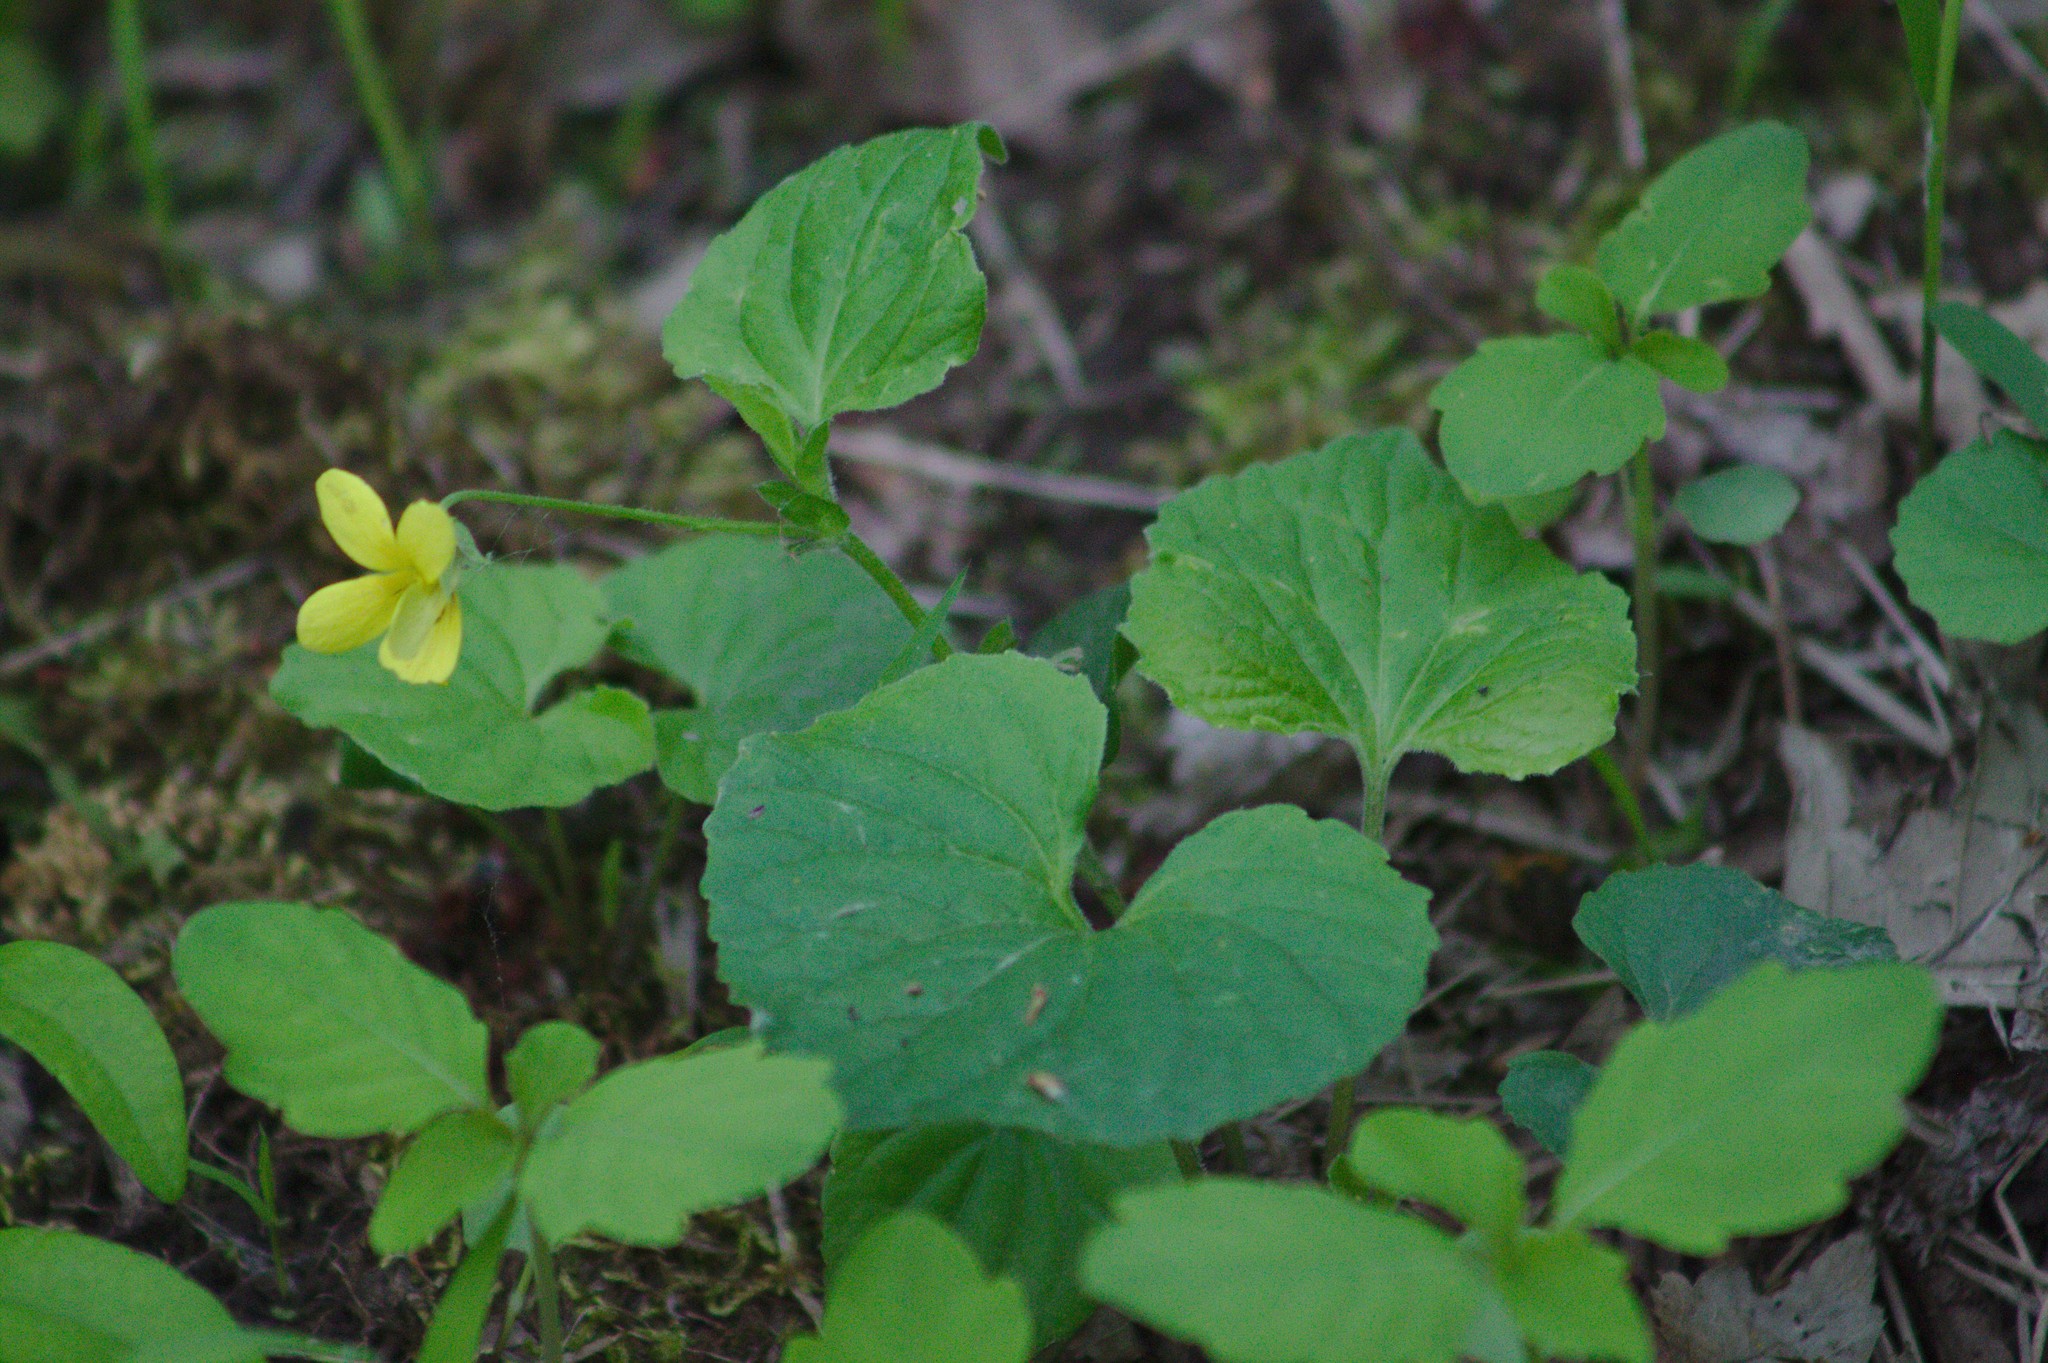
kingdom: Plantae
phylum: Tracheophyta
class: Magnoliopsida
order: Malpighiales
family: Violaceae
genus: Viola
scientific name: Viola eriocarpa
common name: Smooth yellow violet
